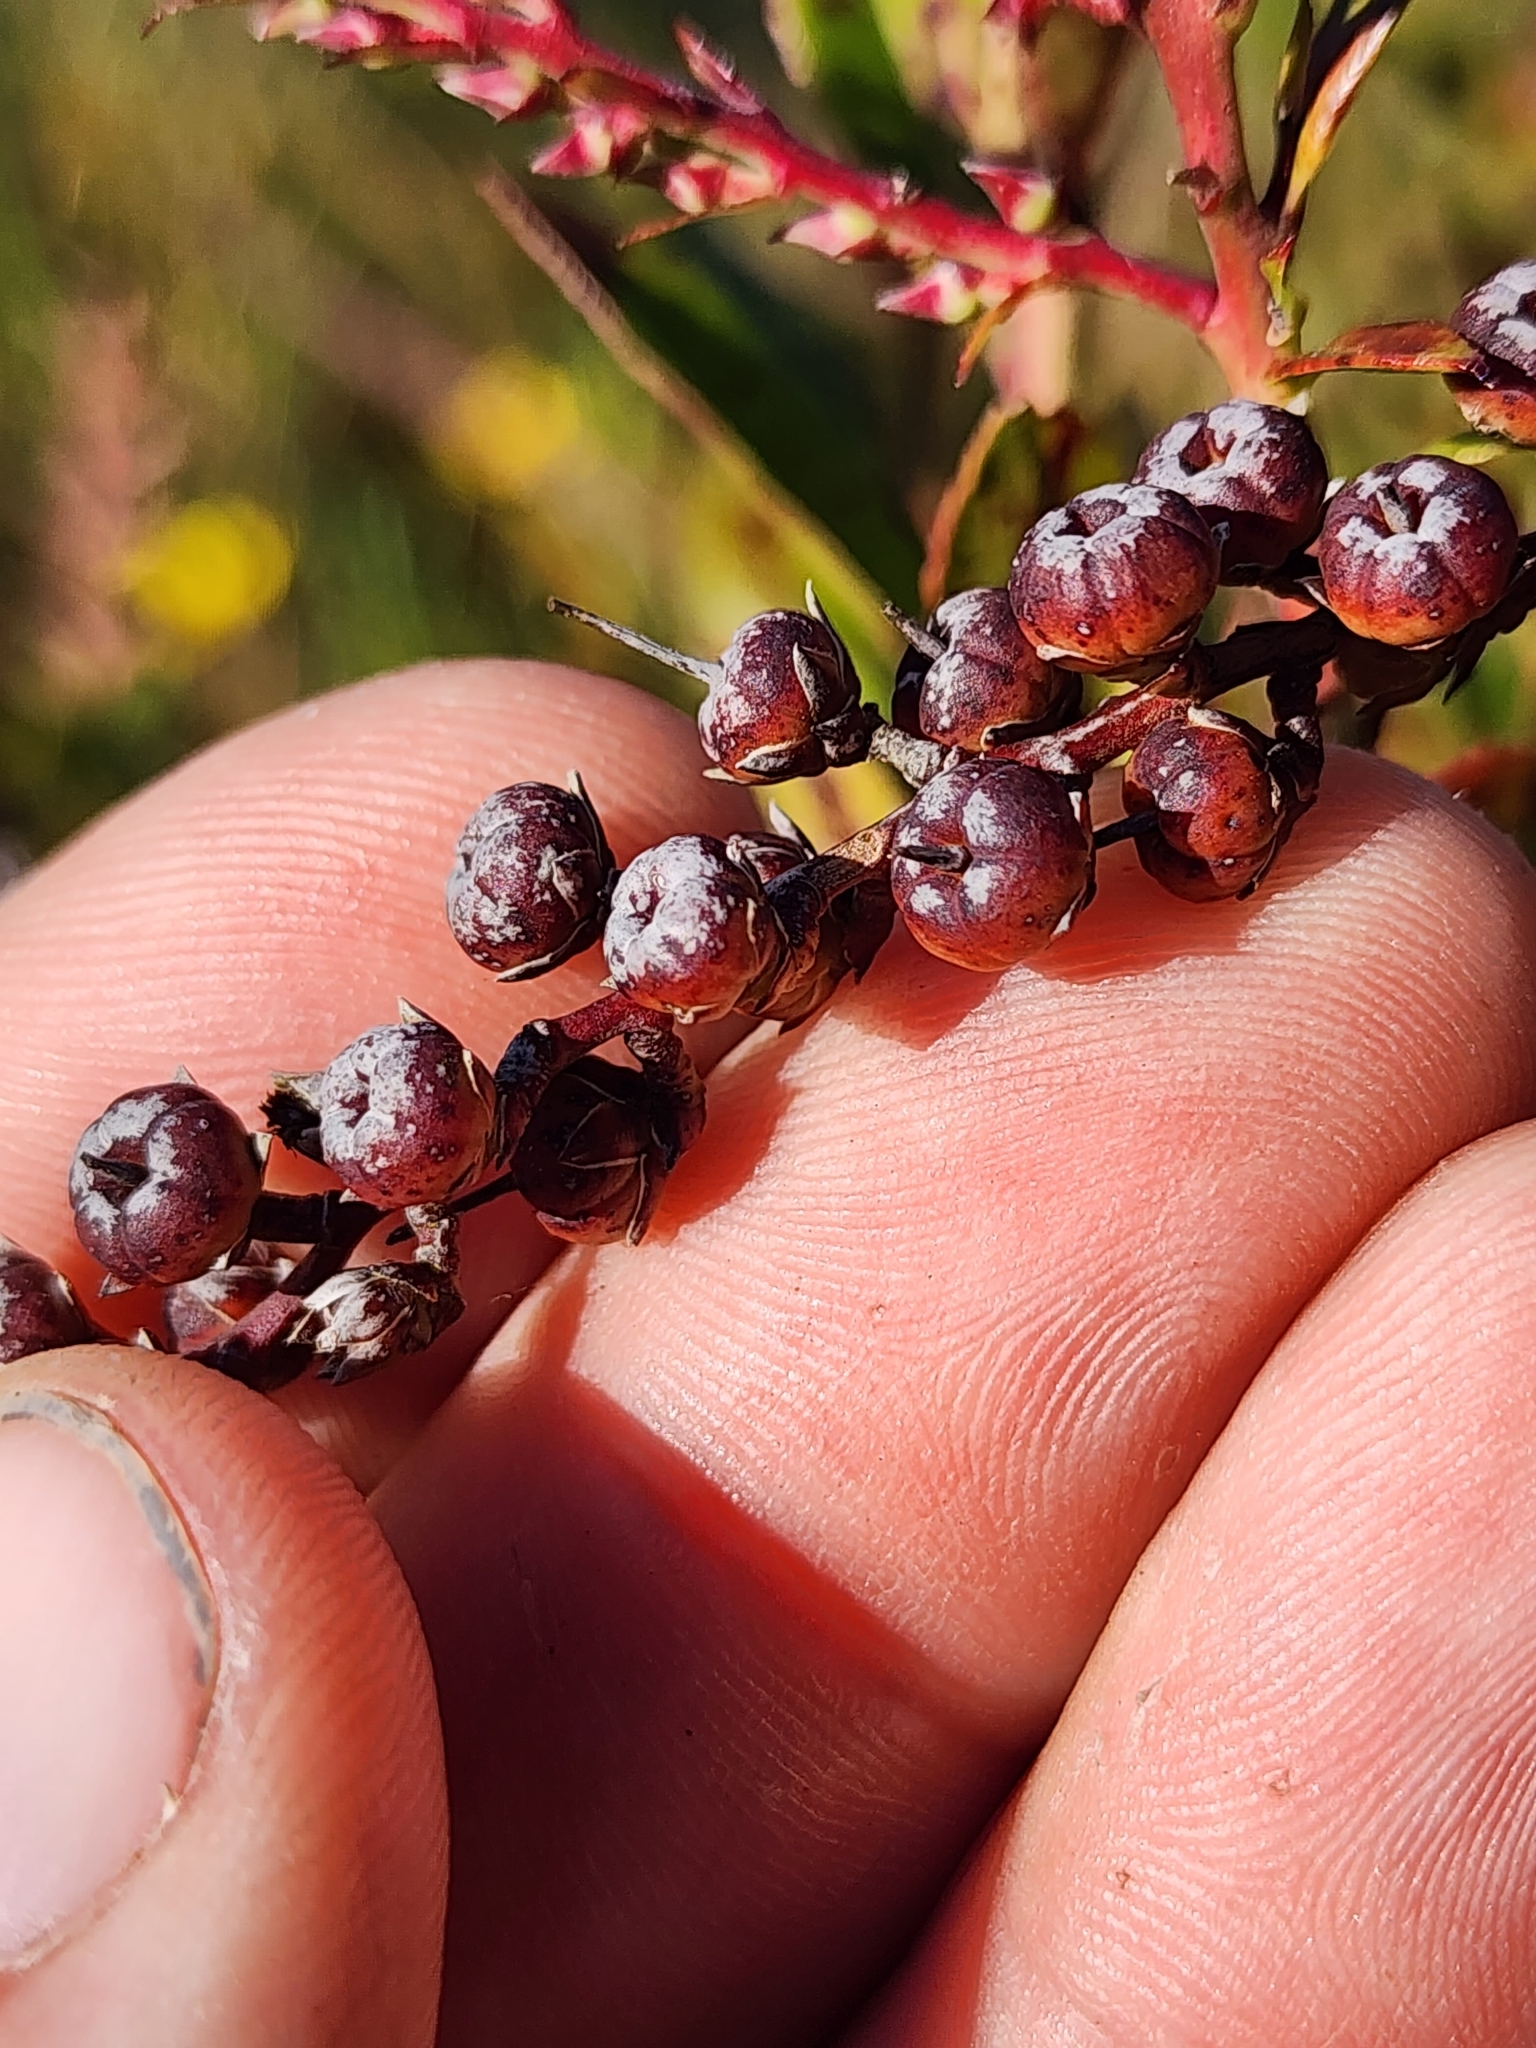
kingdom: Plantae
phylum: Tracheophyta
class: Magnoliopsida
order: Ericales
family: Ericaceae
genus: Eubotrys
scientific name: Eubotrys racemosa
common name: Fetterbush
